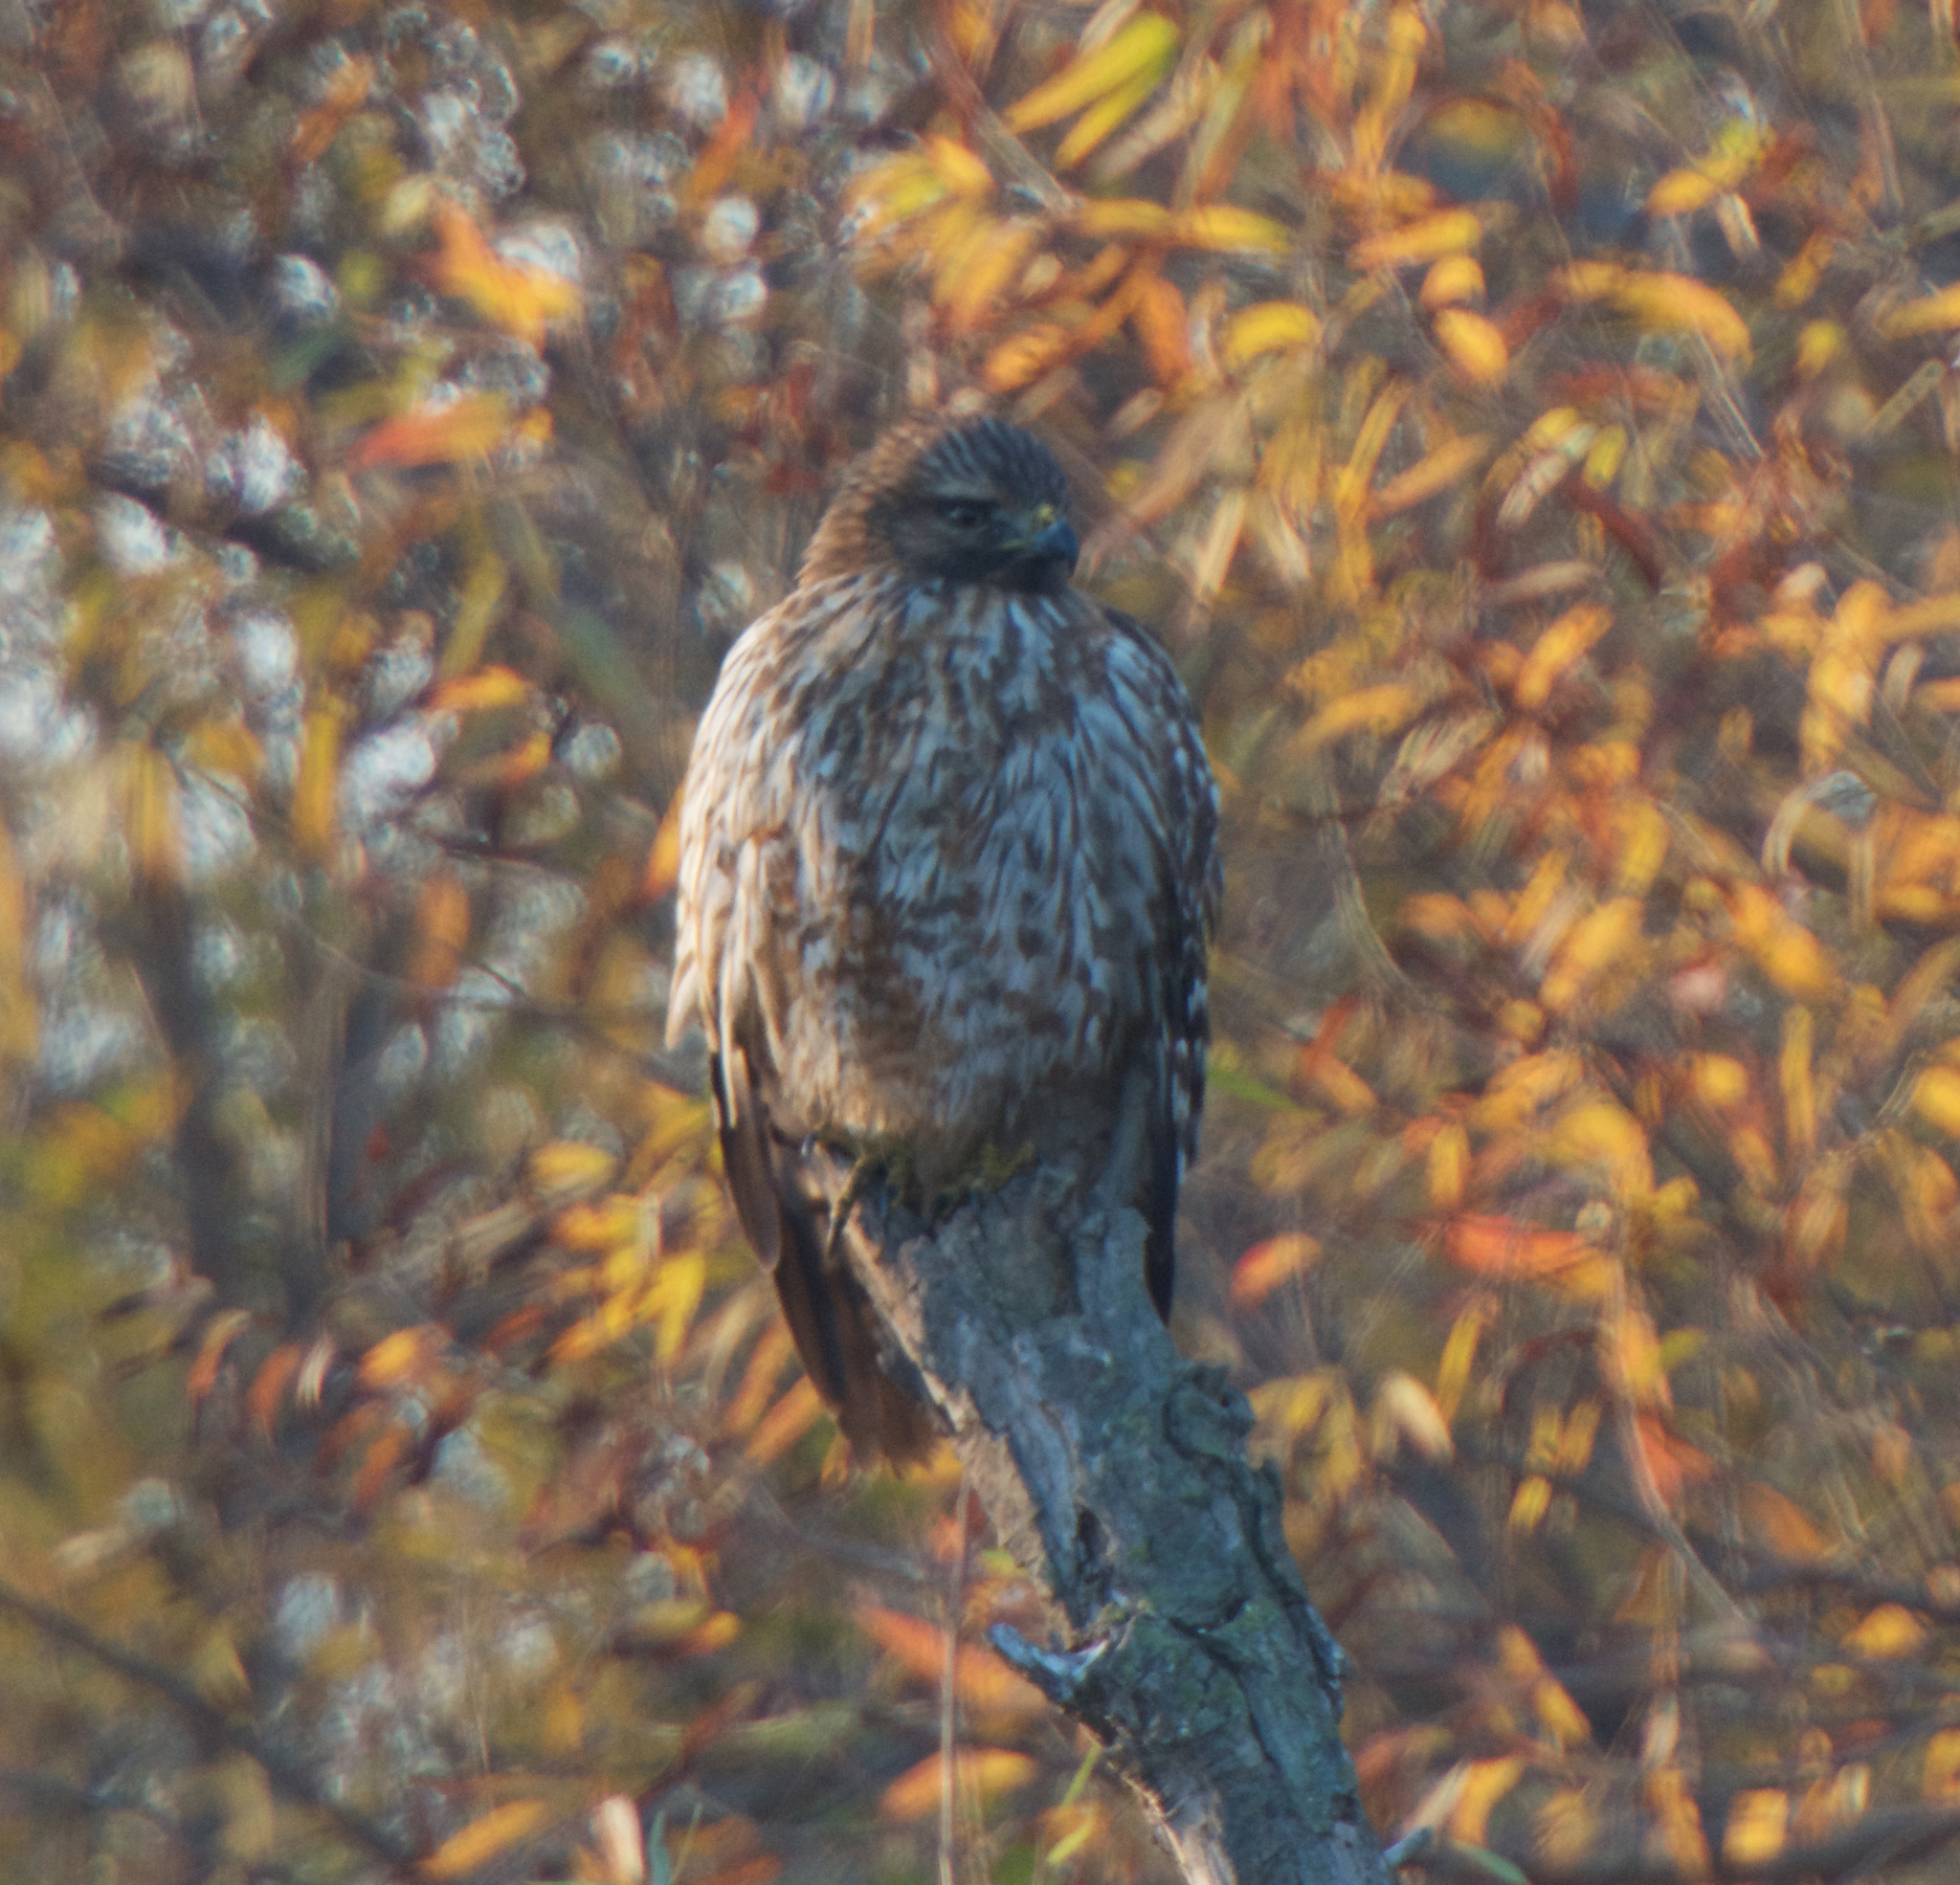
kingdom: Animalia
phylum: Chordata
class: Aves
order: Accipitriformes
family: Accipitridae
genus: Buteo
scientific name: Buteo lineatus
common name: Red-shouldered hawk
